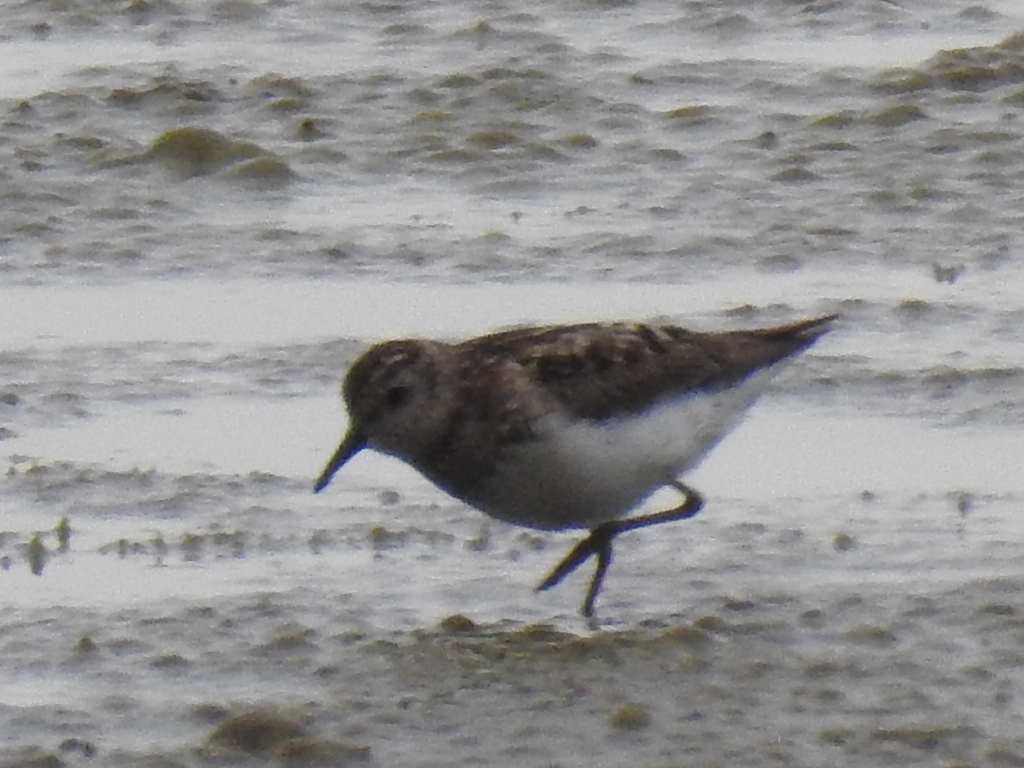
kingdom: Animalia
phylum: Chordata
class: Aves
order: Charadriiformes
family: Scolopacidae
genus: Calidris
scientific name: Calidris minutilla
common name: Least sandpiper
